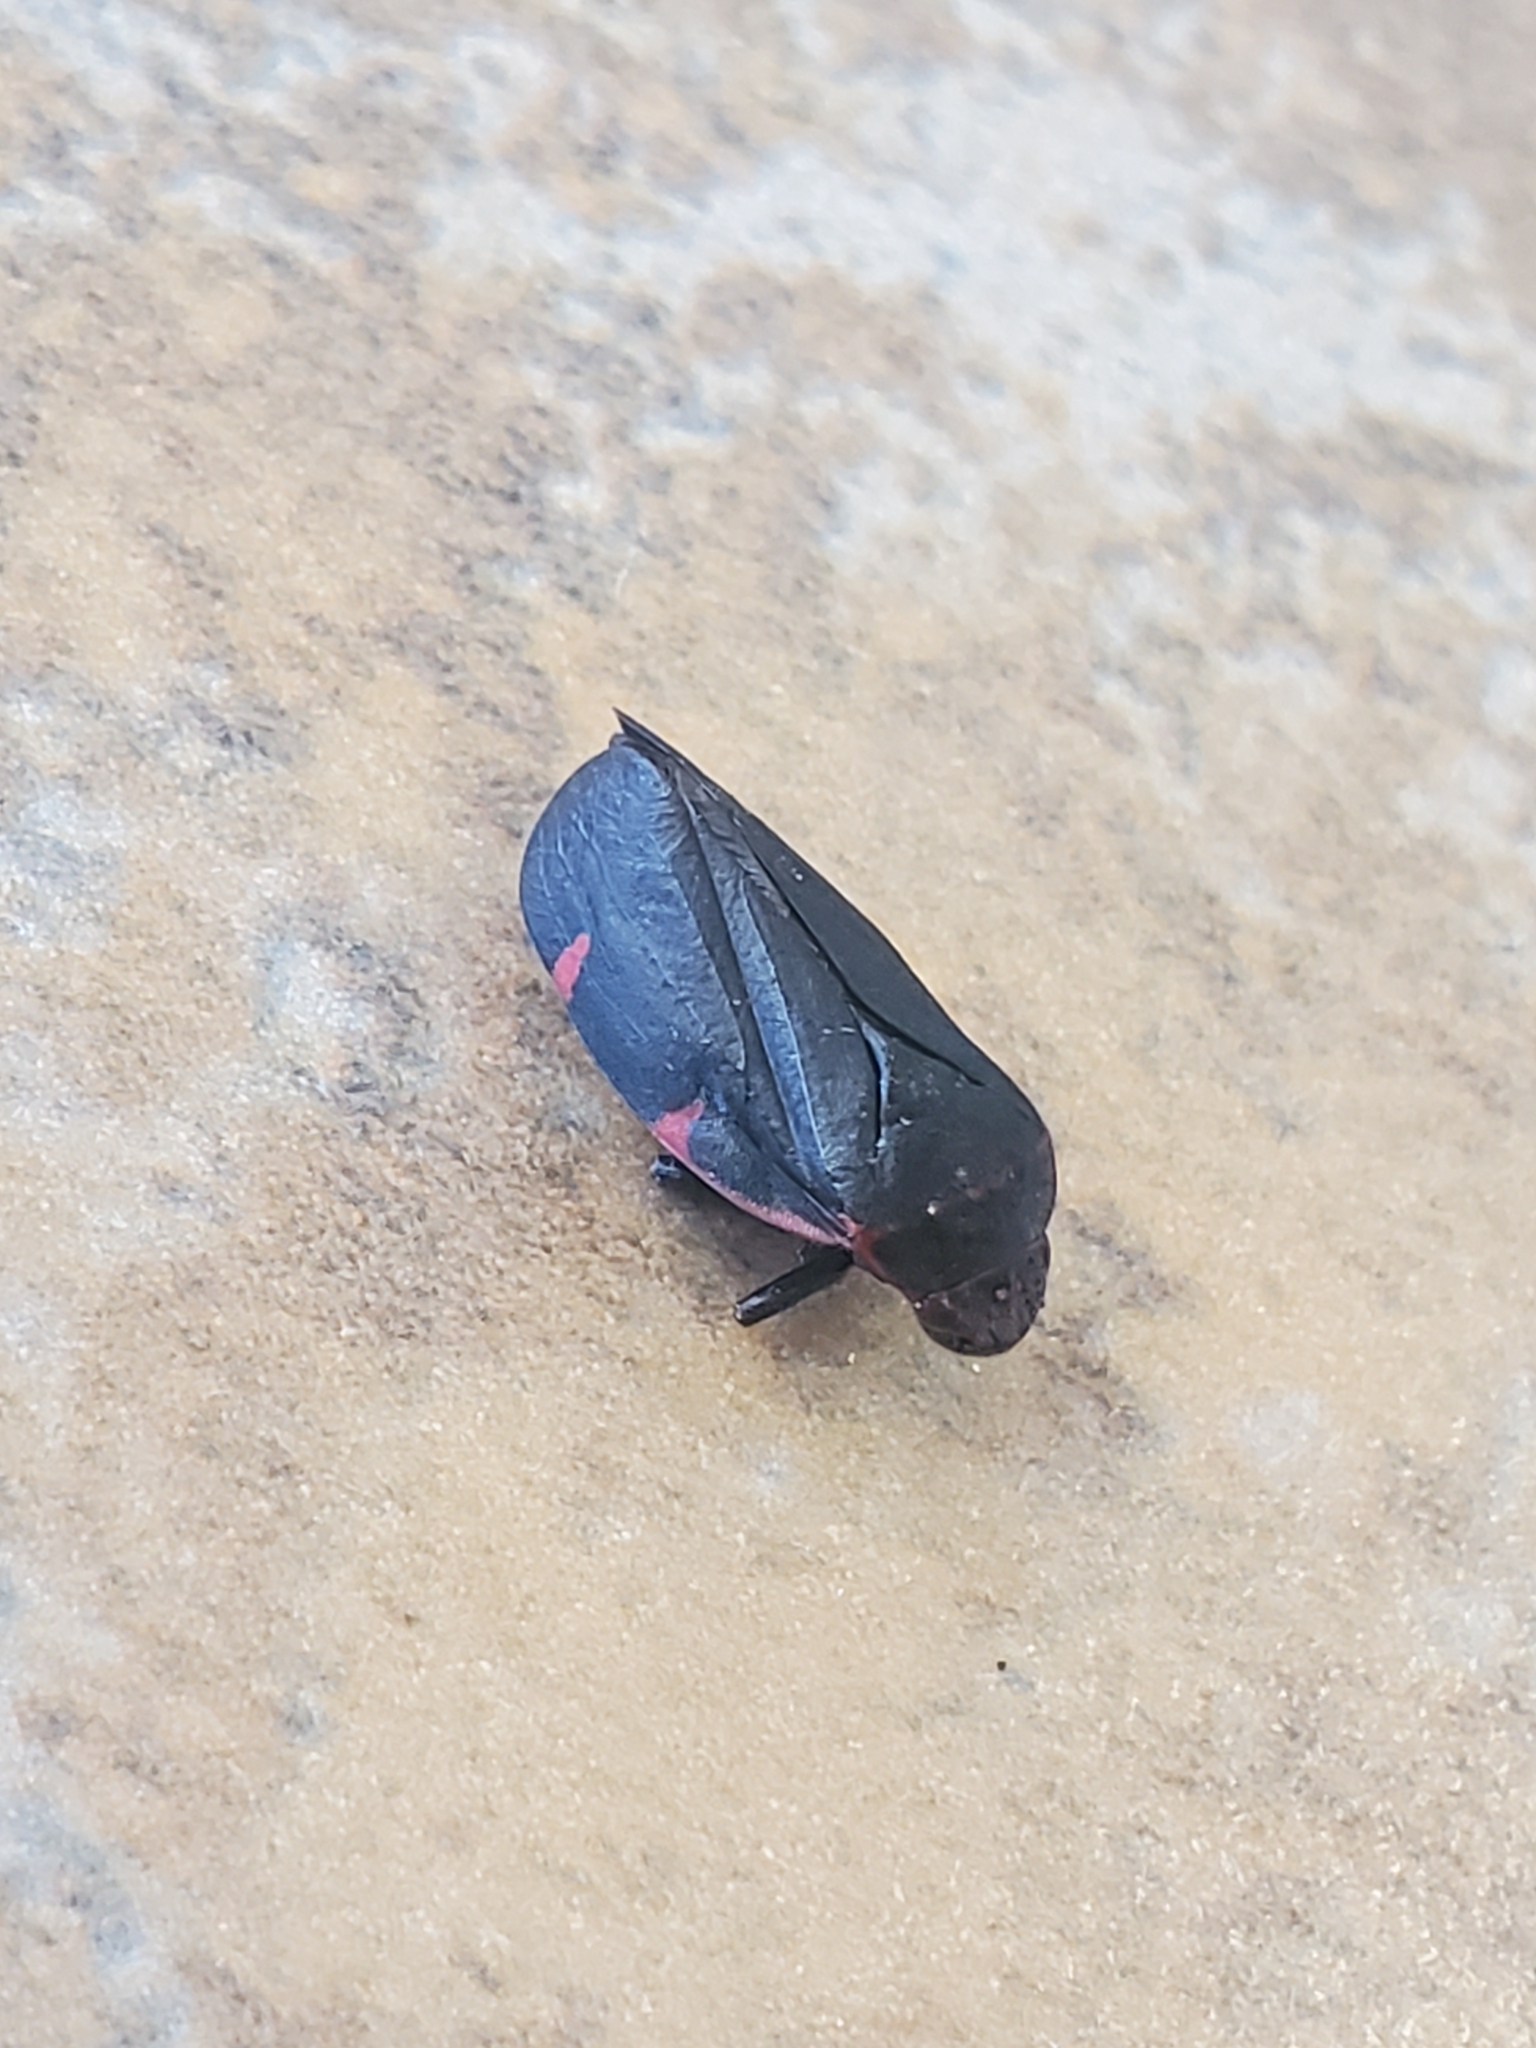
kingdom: Animalia
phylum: Arthropoda
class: Insecta
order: Hemiptera
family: Cercopidae
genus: Prosapia
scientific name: Prosapia
